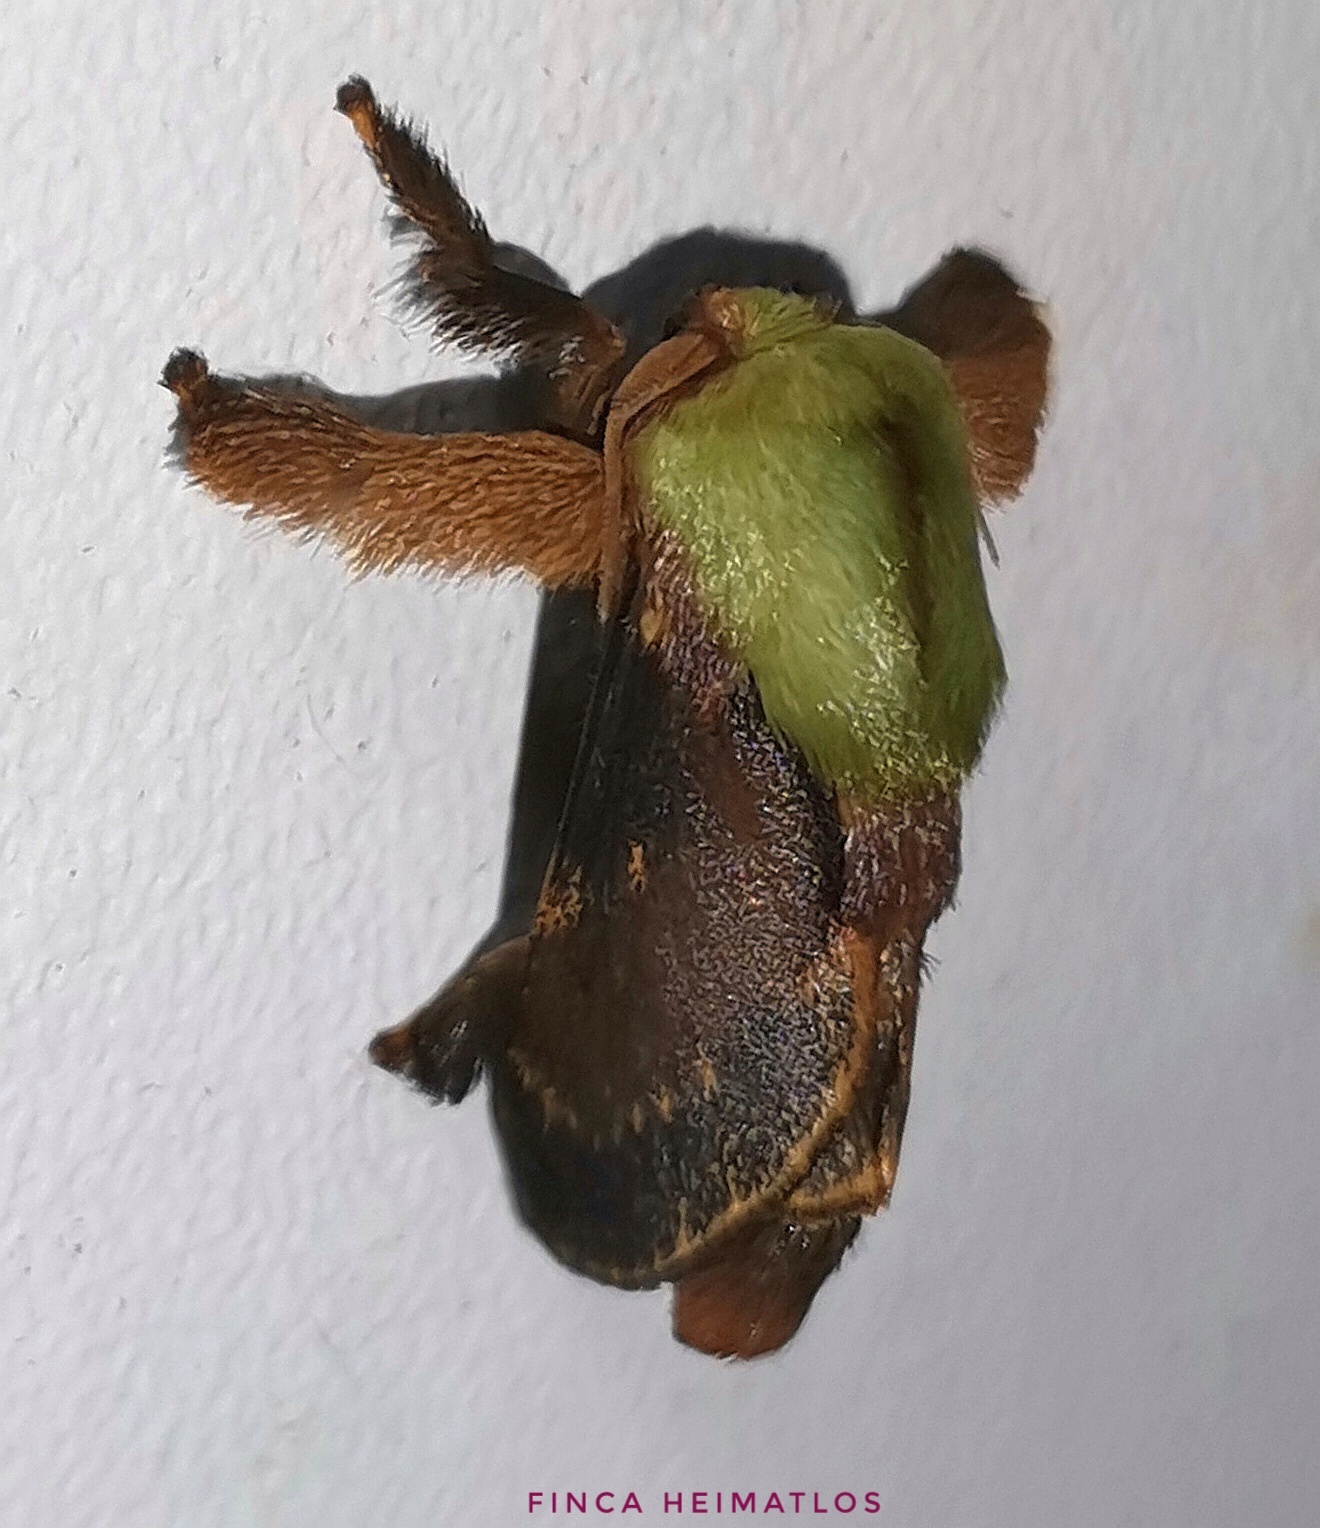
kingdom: Animalia
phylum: Arthropoda
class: Insecta
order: Lepidoptera
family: Limacodidae
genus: Parasa
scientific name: Parasa schausi
